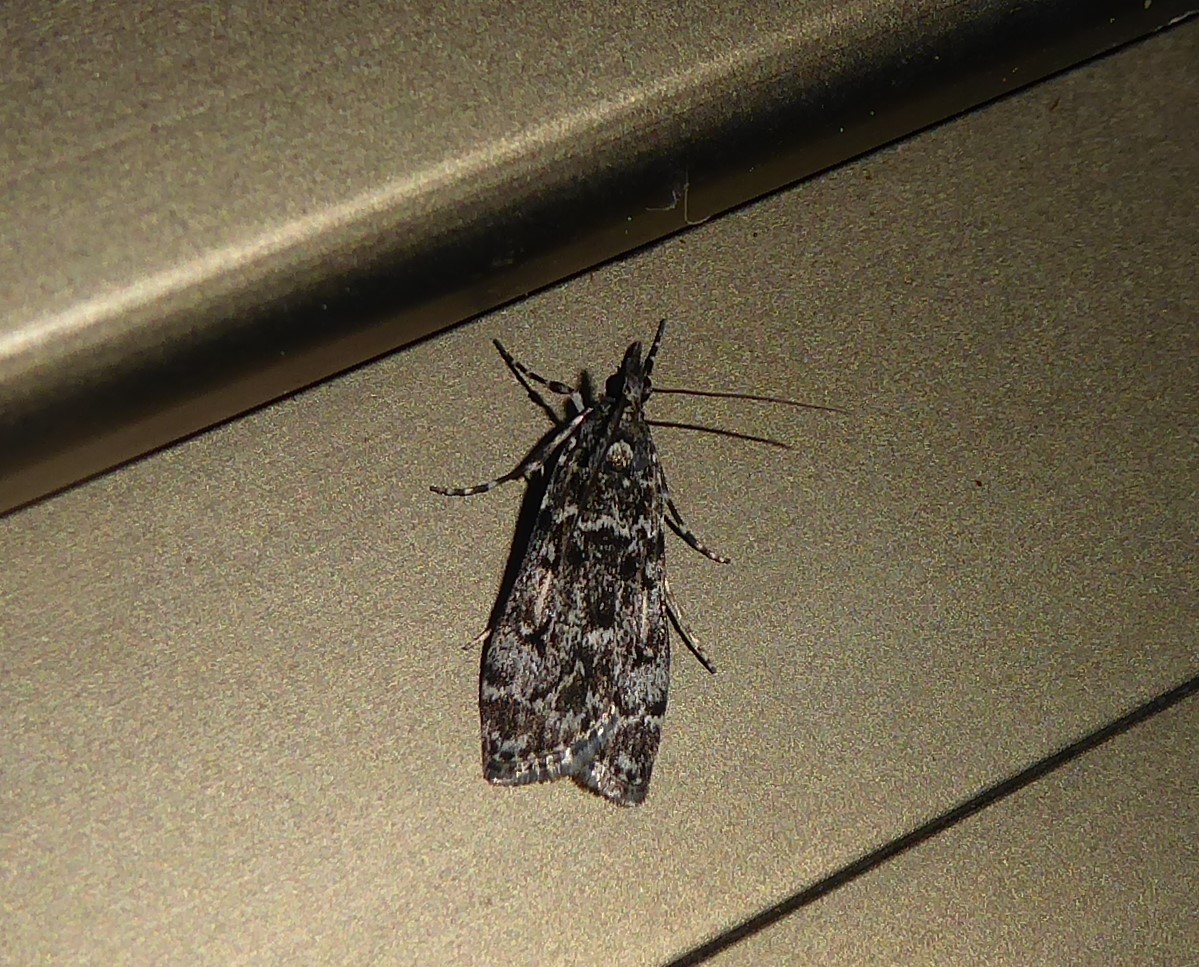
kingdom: Animalia
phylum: Arthropoda
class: Insecta
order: Lepidoptera
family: Crambidae
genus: Eudonia
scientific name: Eudonia philerga
